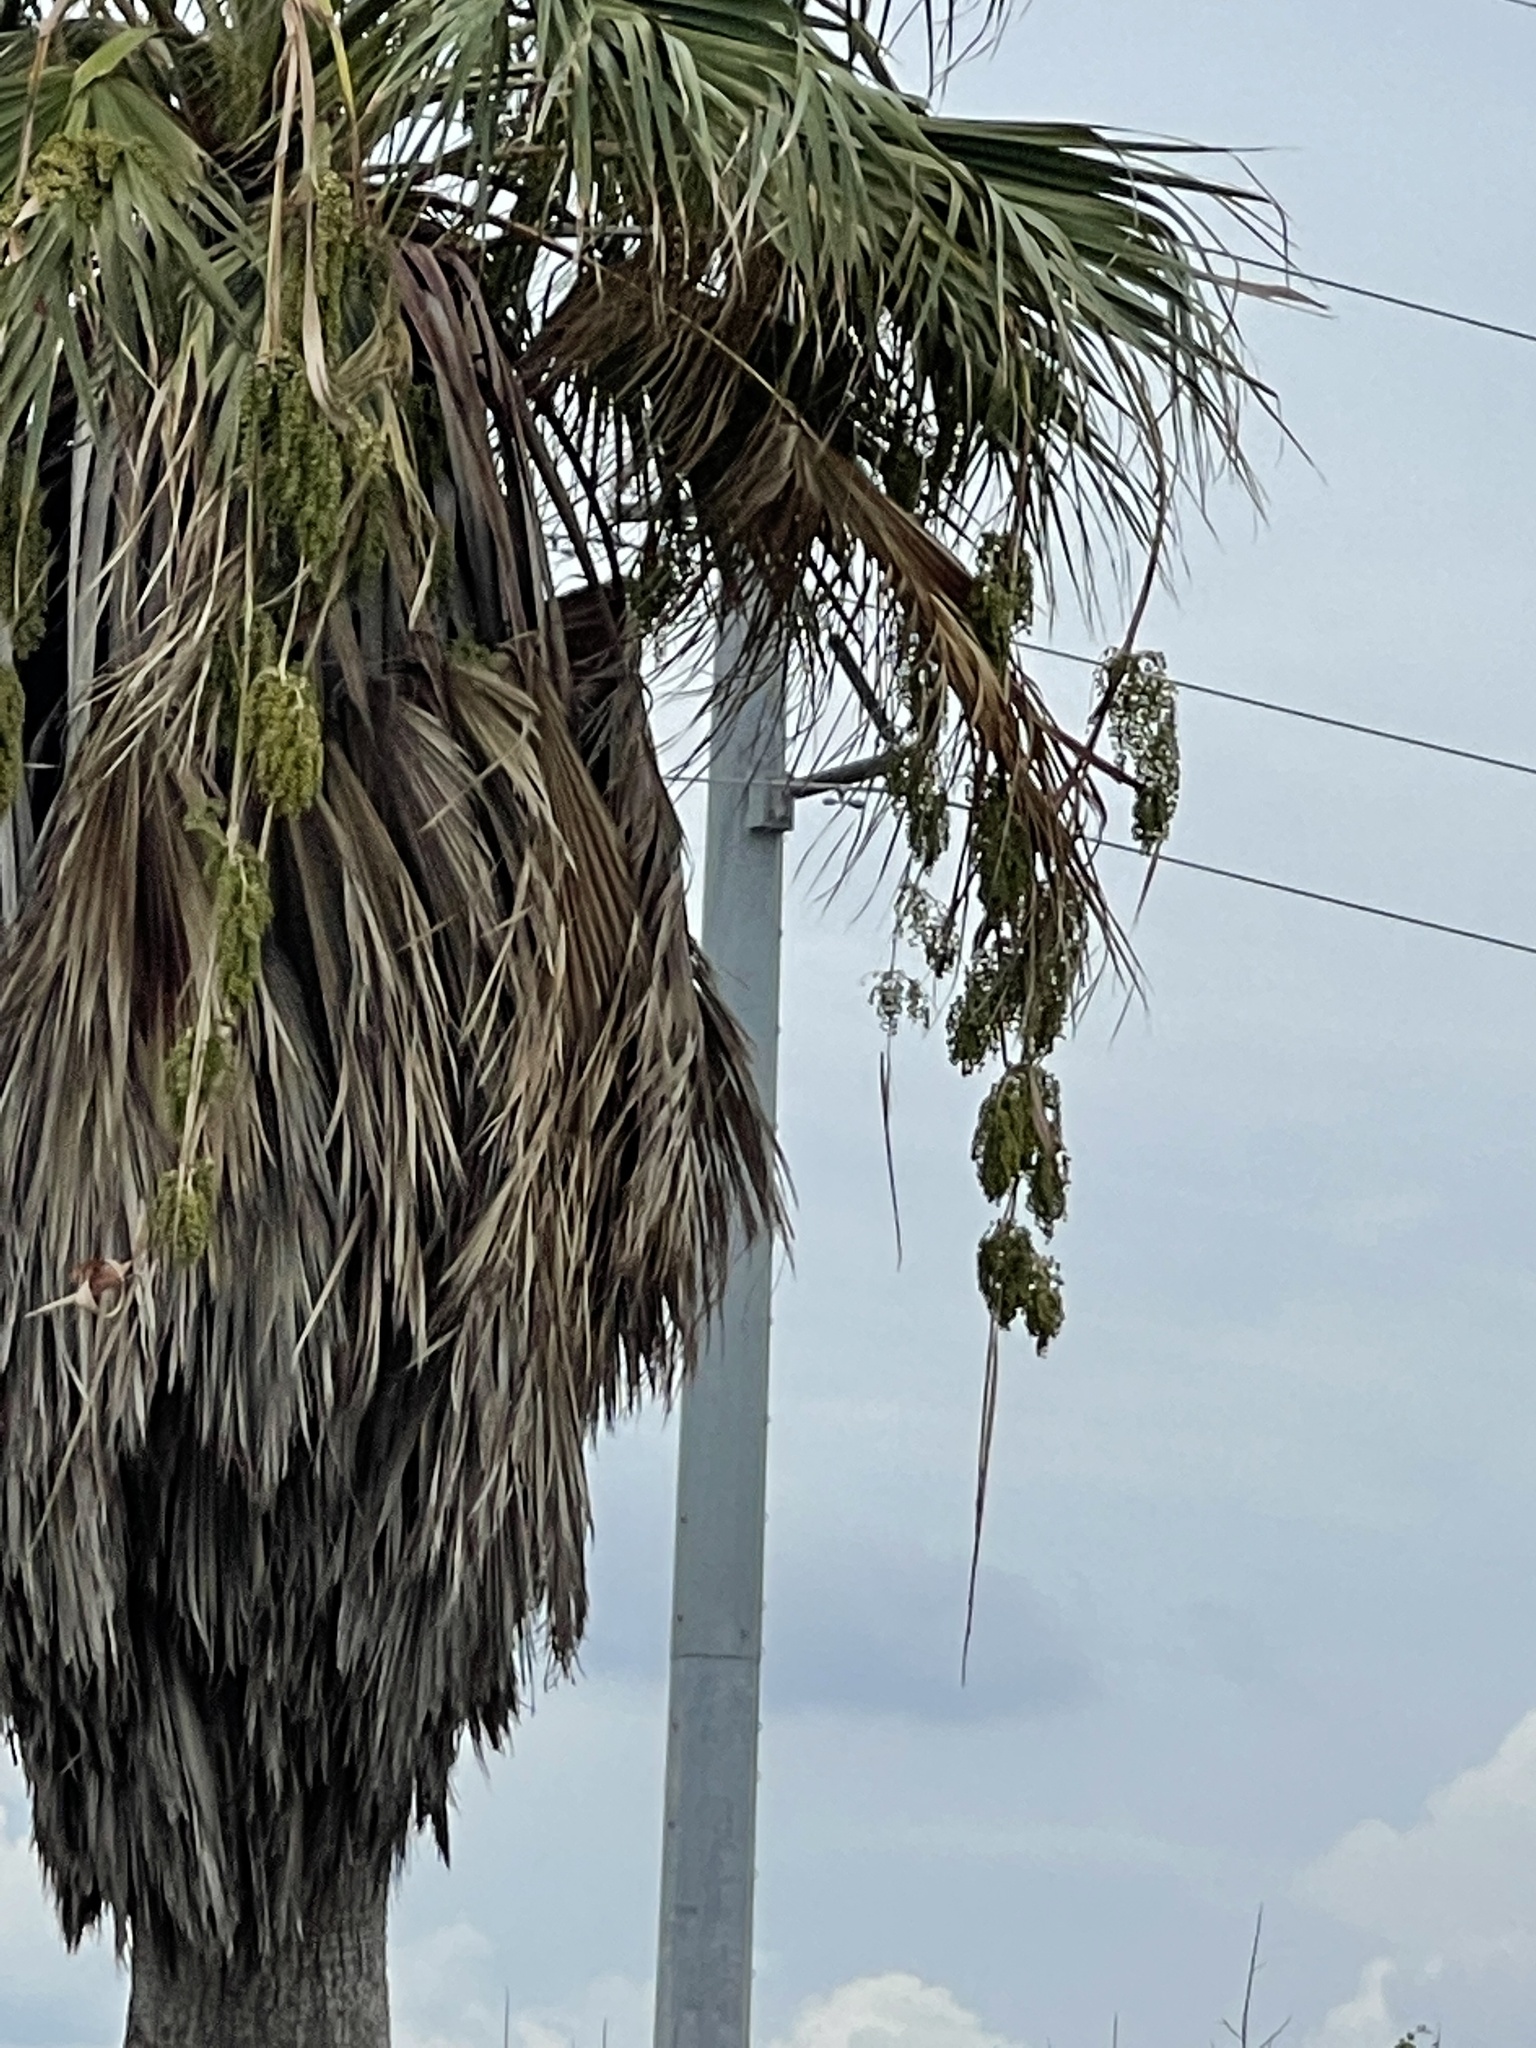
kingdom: Plantae
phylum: Tracheophyta
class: Liliopsida
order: Arecales
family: Arecaceae
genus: Washingtonia
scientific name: Washingtonia filifera
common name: California fan palm
